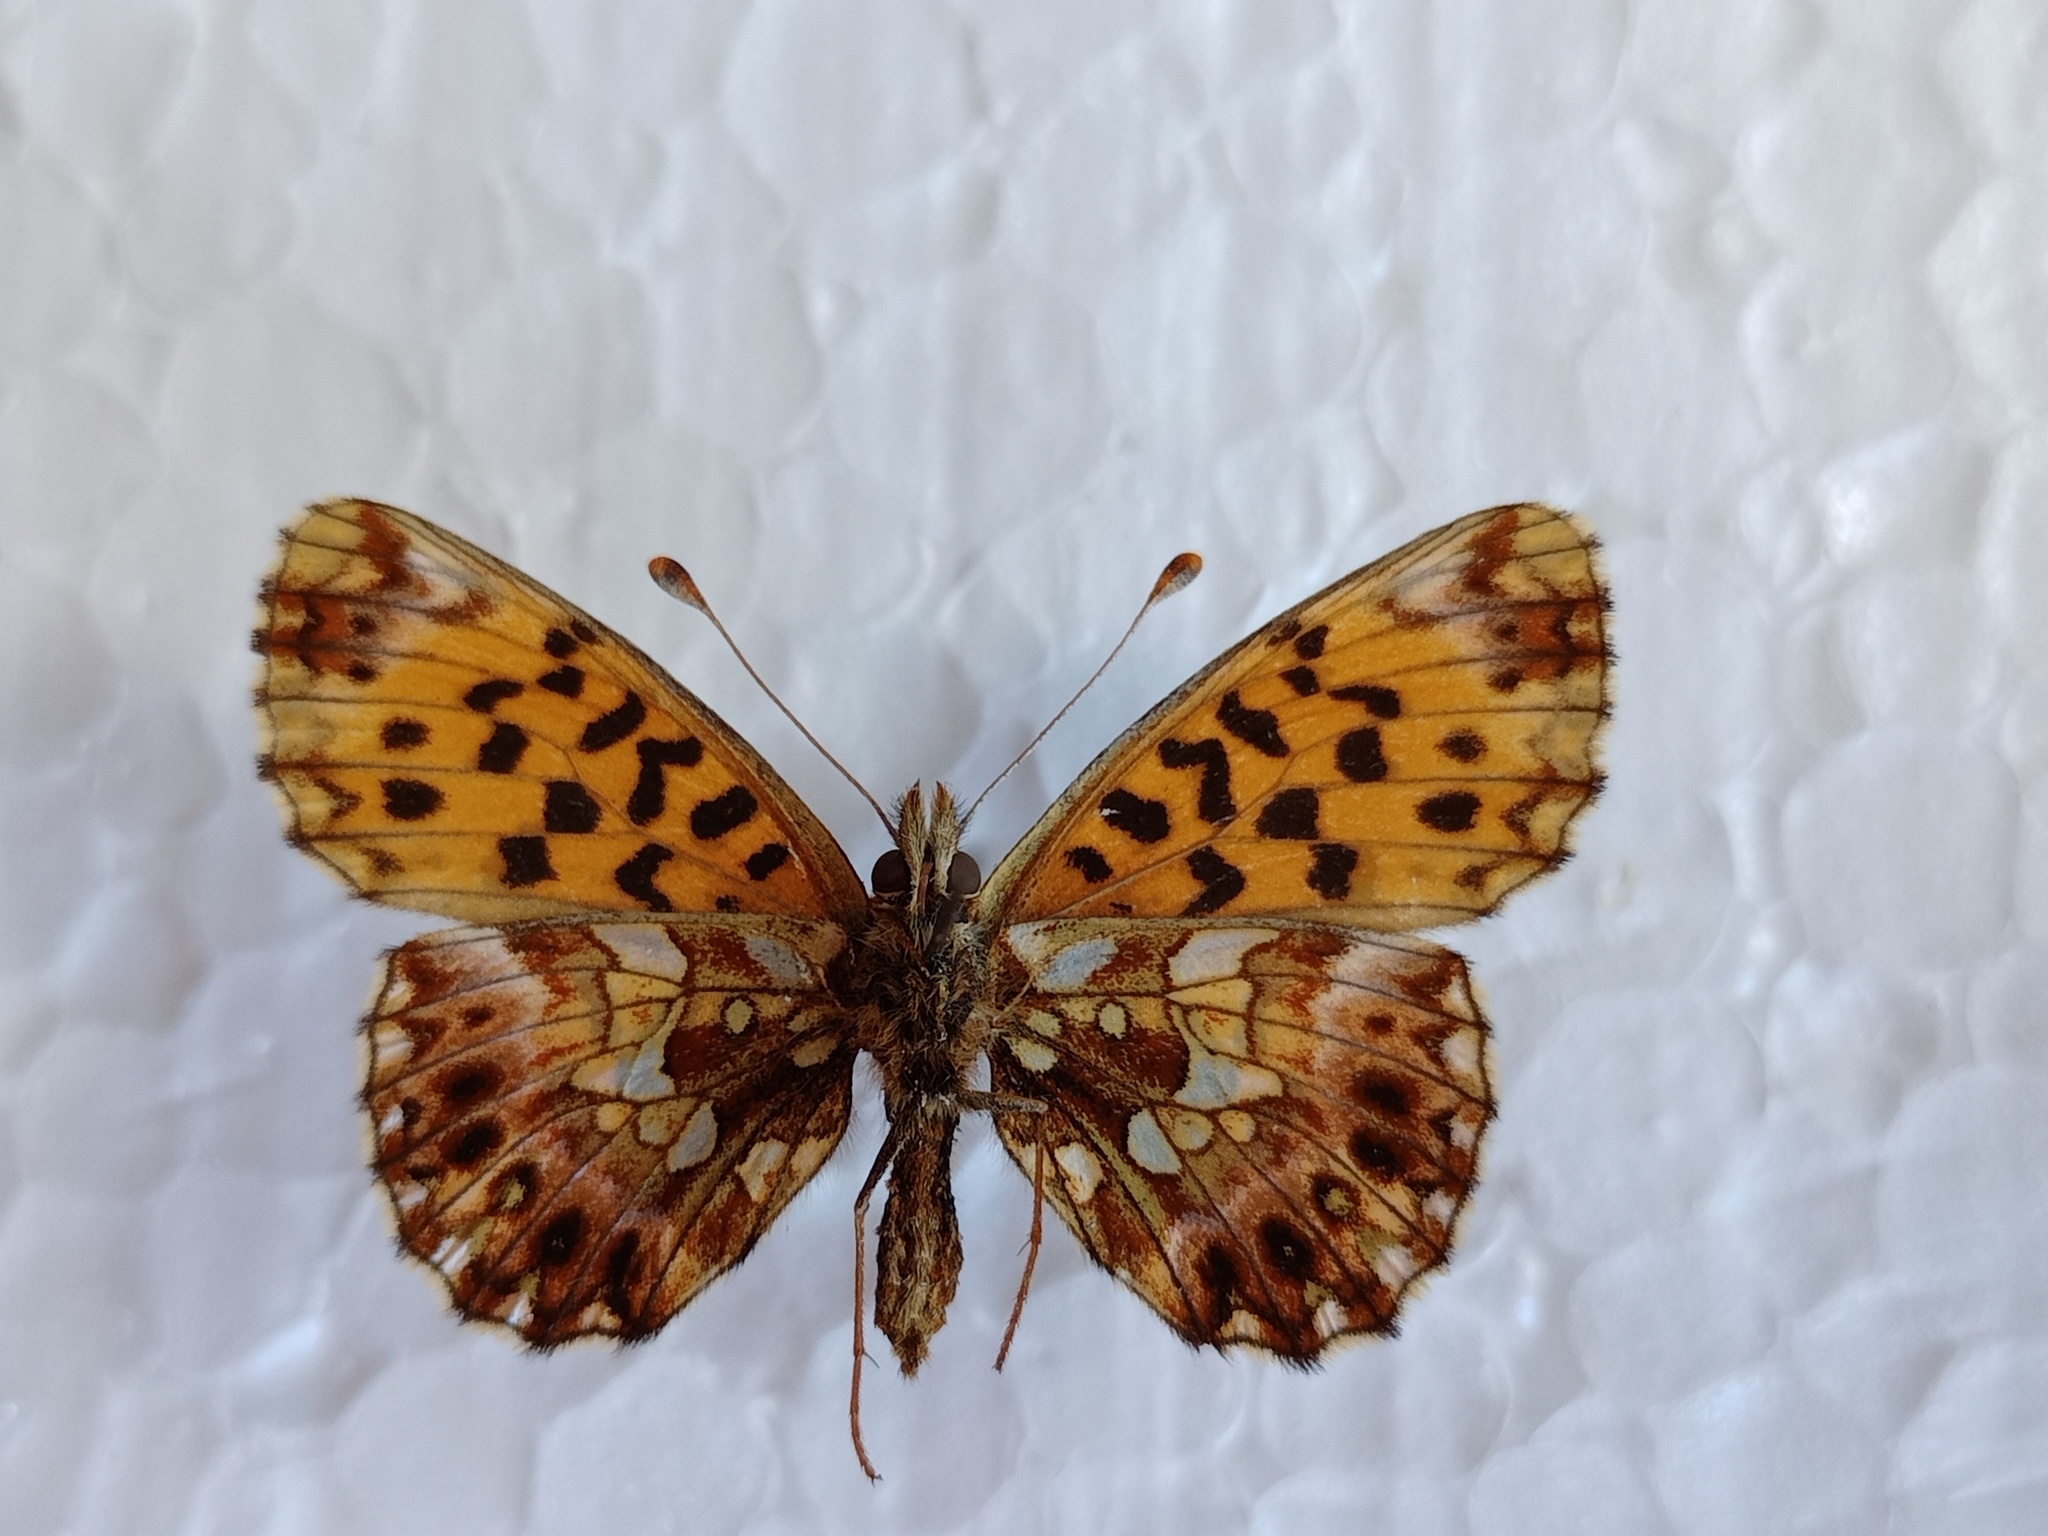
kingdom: Animalia
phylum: Arthropoda
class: Insecta
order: Lepidoptera
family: Nymphalidae
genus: Boloria
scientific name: Boloria dia
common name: Weaver's fritillary
